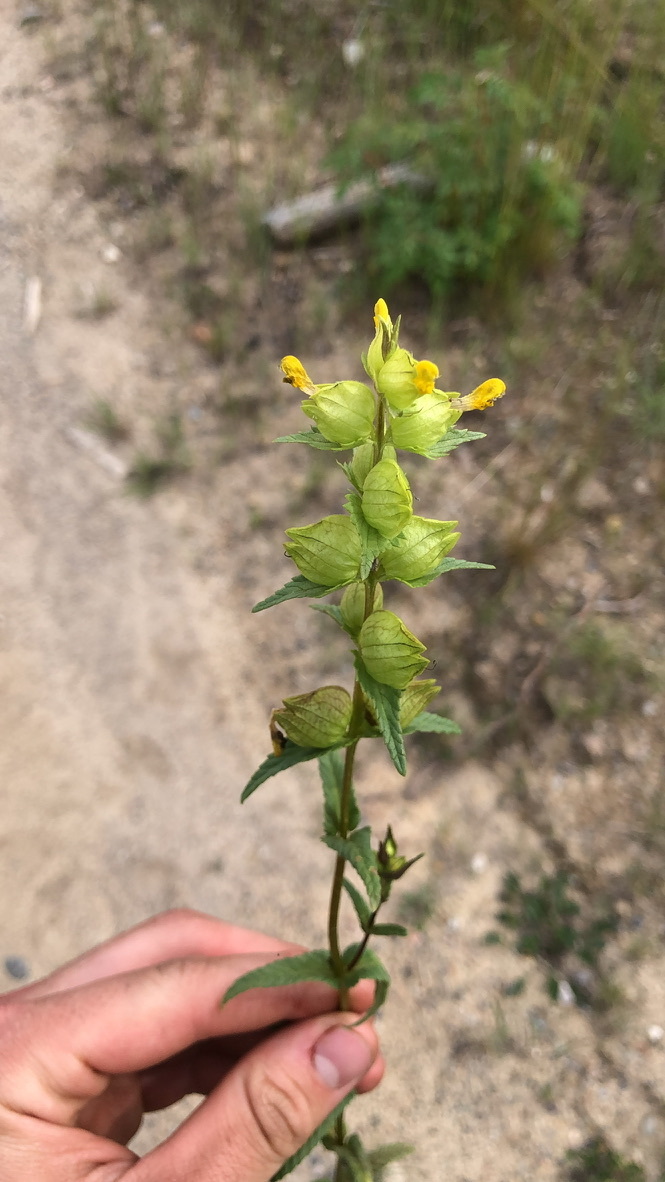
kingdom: Plantae
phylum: Tracheophyta
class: Magnoliopsida
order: Lamiales
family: Orobanchaceae
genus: Rhinanthus
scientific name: Rhinanthus groenlandicus
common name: Little yellow rattle
